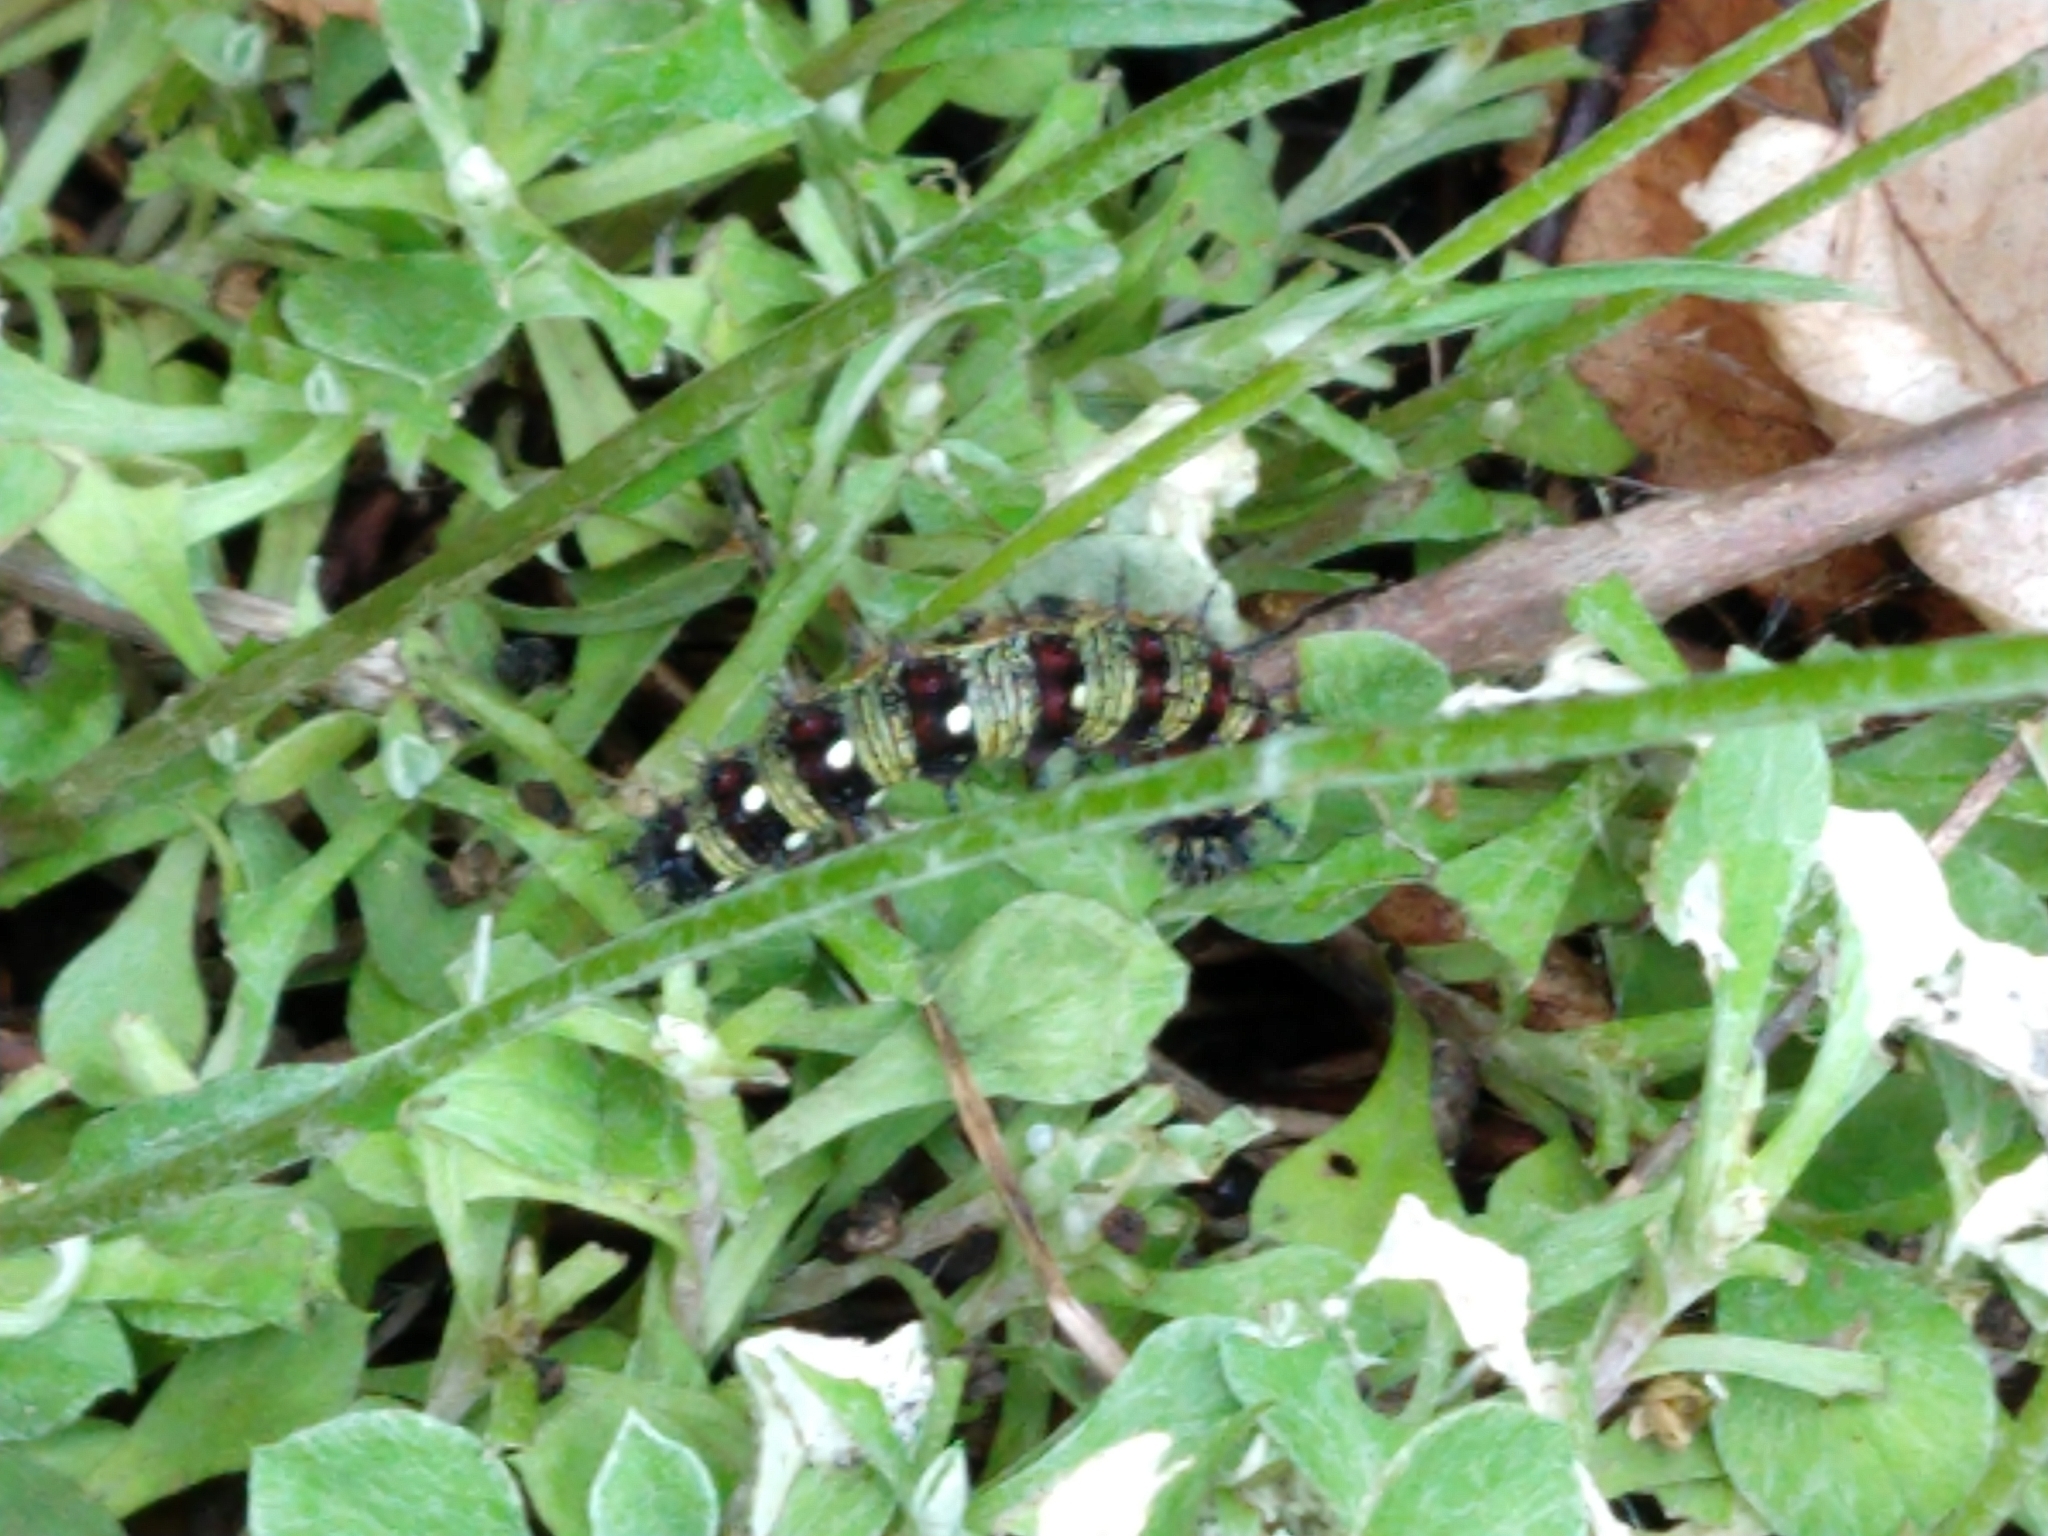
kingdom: Animalia
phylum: Arthropoda
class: Insecta
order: Lepidoptera
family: Nymphalidae
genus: Vanessa
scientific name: Vanessa virginiensis
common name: American lady
